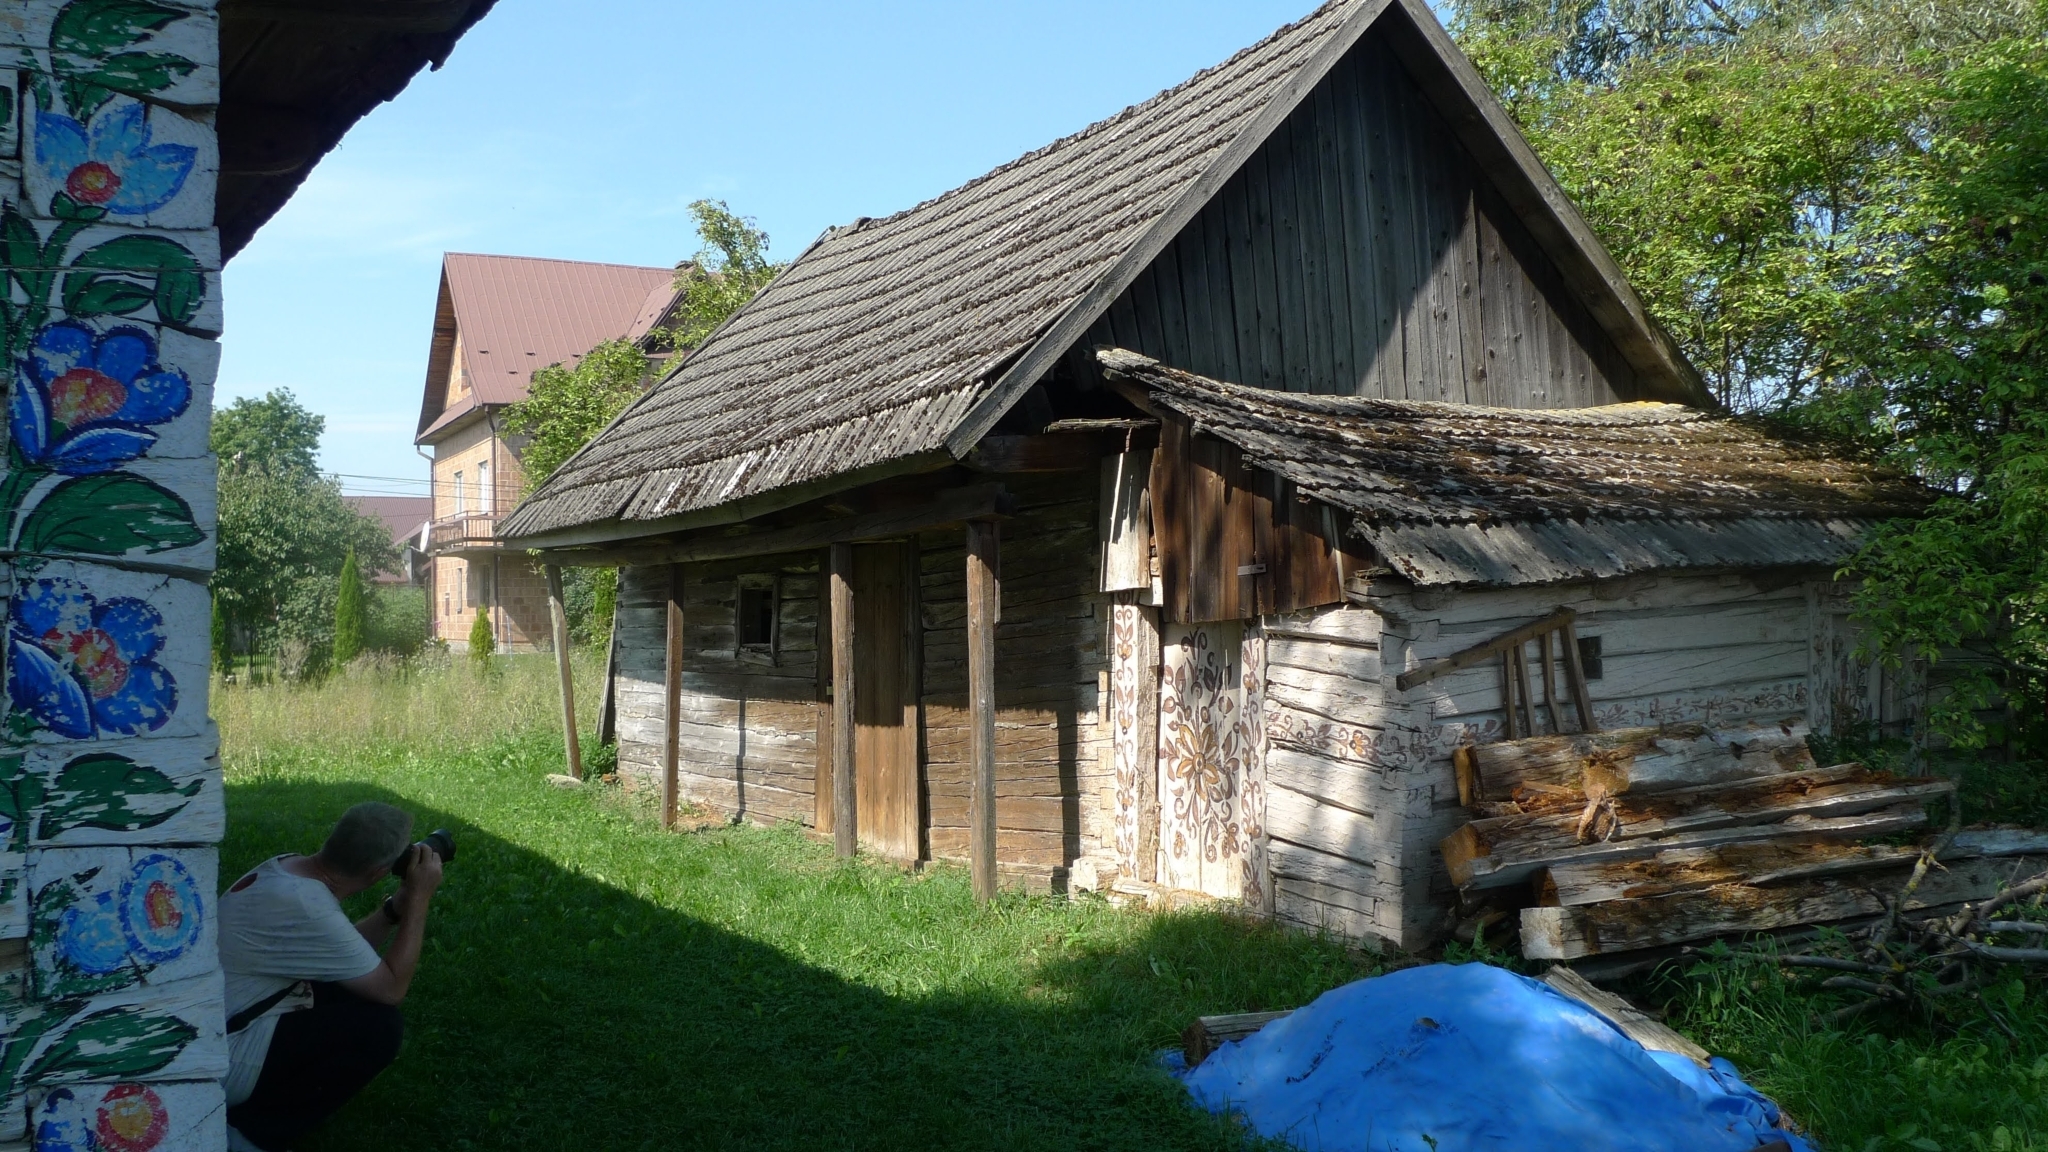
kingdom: Animalia
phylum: Chordata
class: Aves
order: Columbiformes
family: Columbidae
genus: Streptopelia
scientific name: Streptopelia decaocto
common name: Eurasian collared dove
